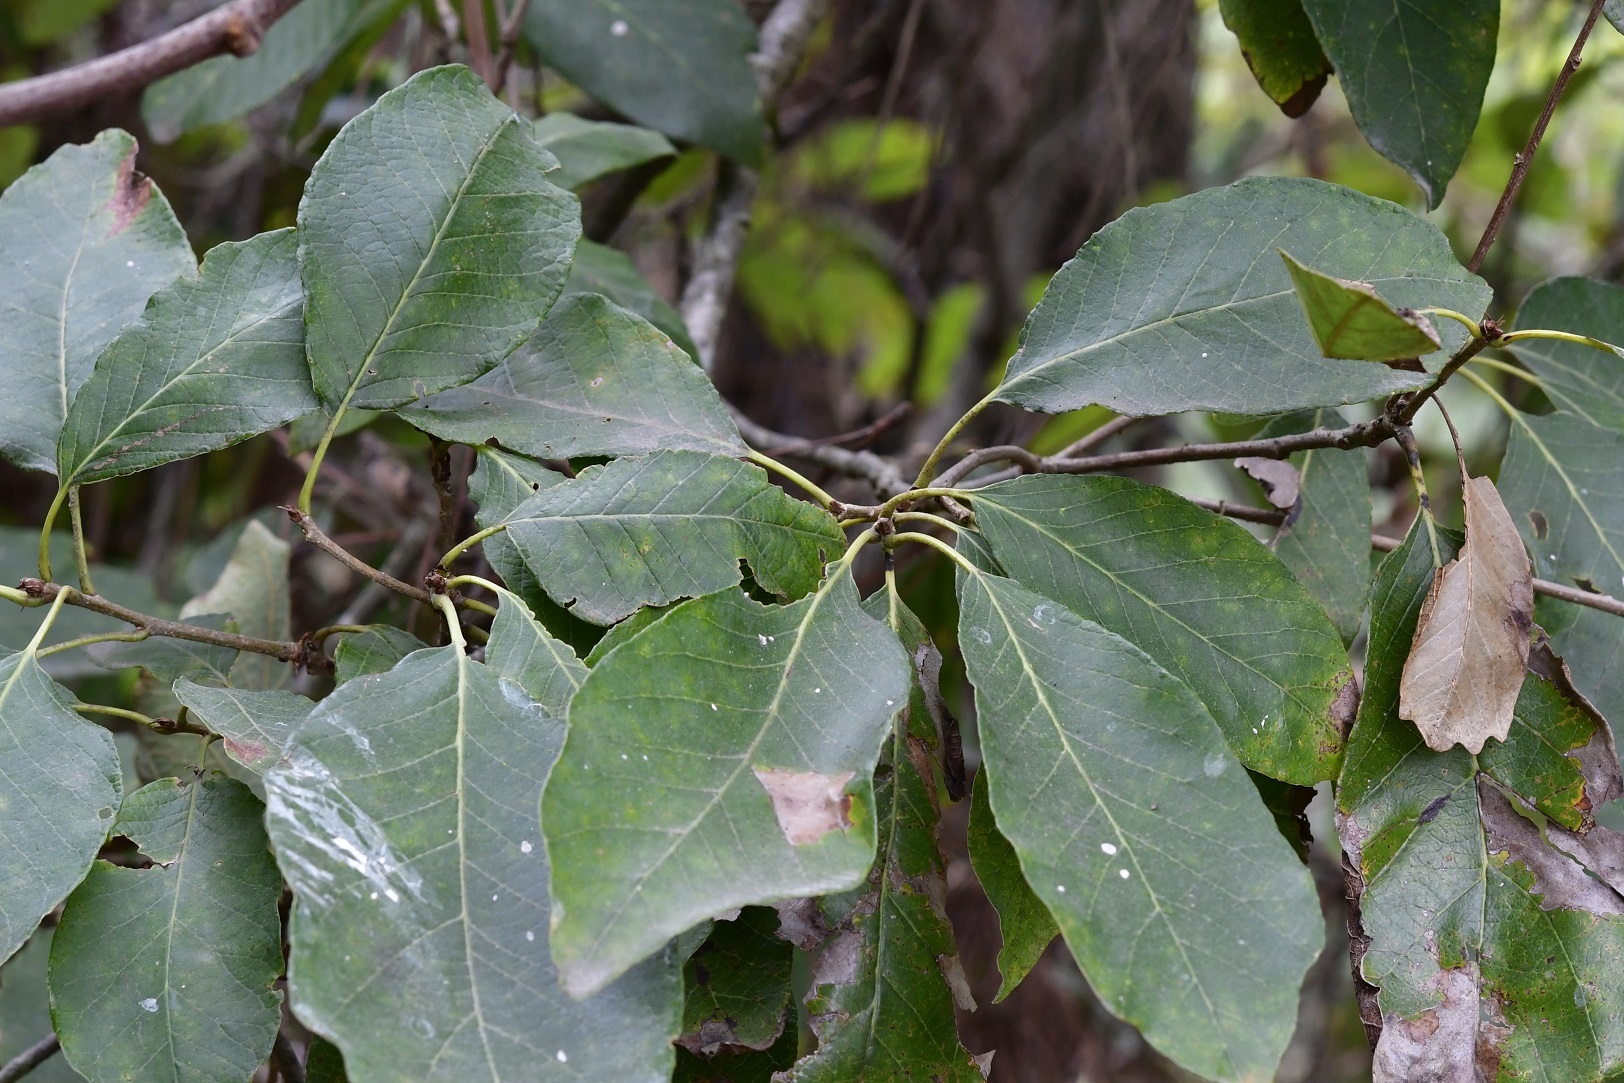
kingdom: Plantae
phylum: Tracheophyta
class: Magnoliopsida
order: Fagales
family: Fagaceae
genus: Quercus
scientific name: Quercus polymorpha
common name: Mexican white oak
